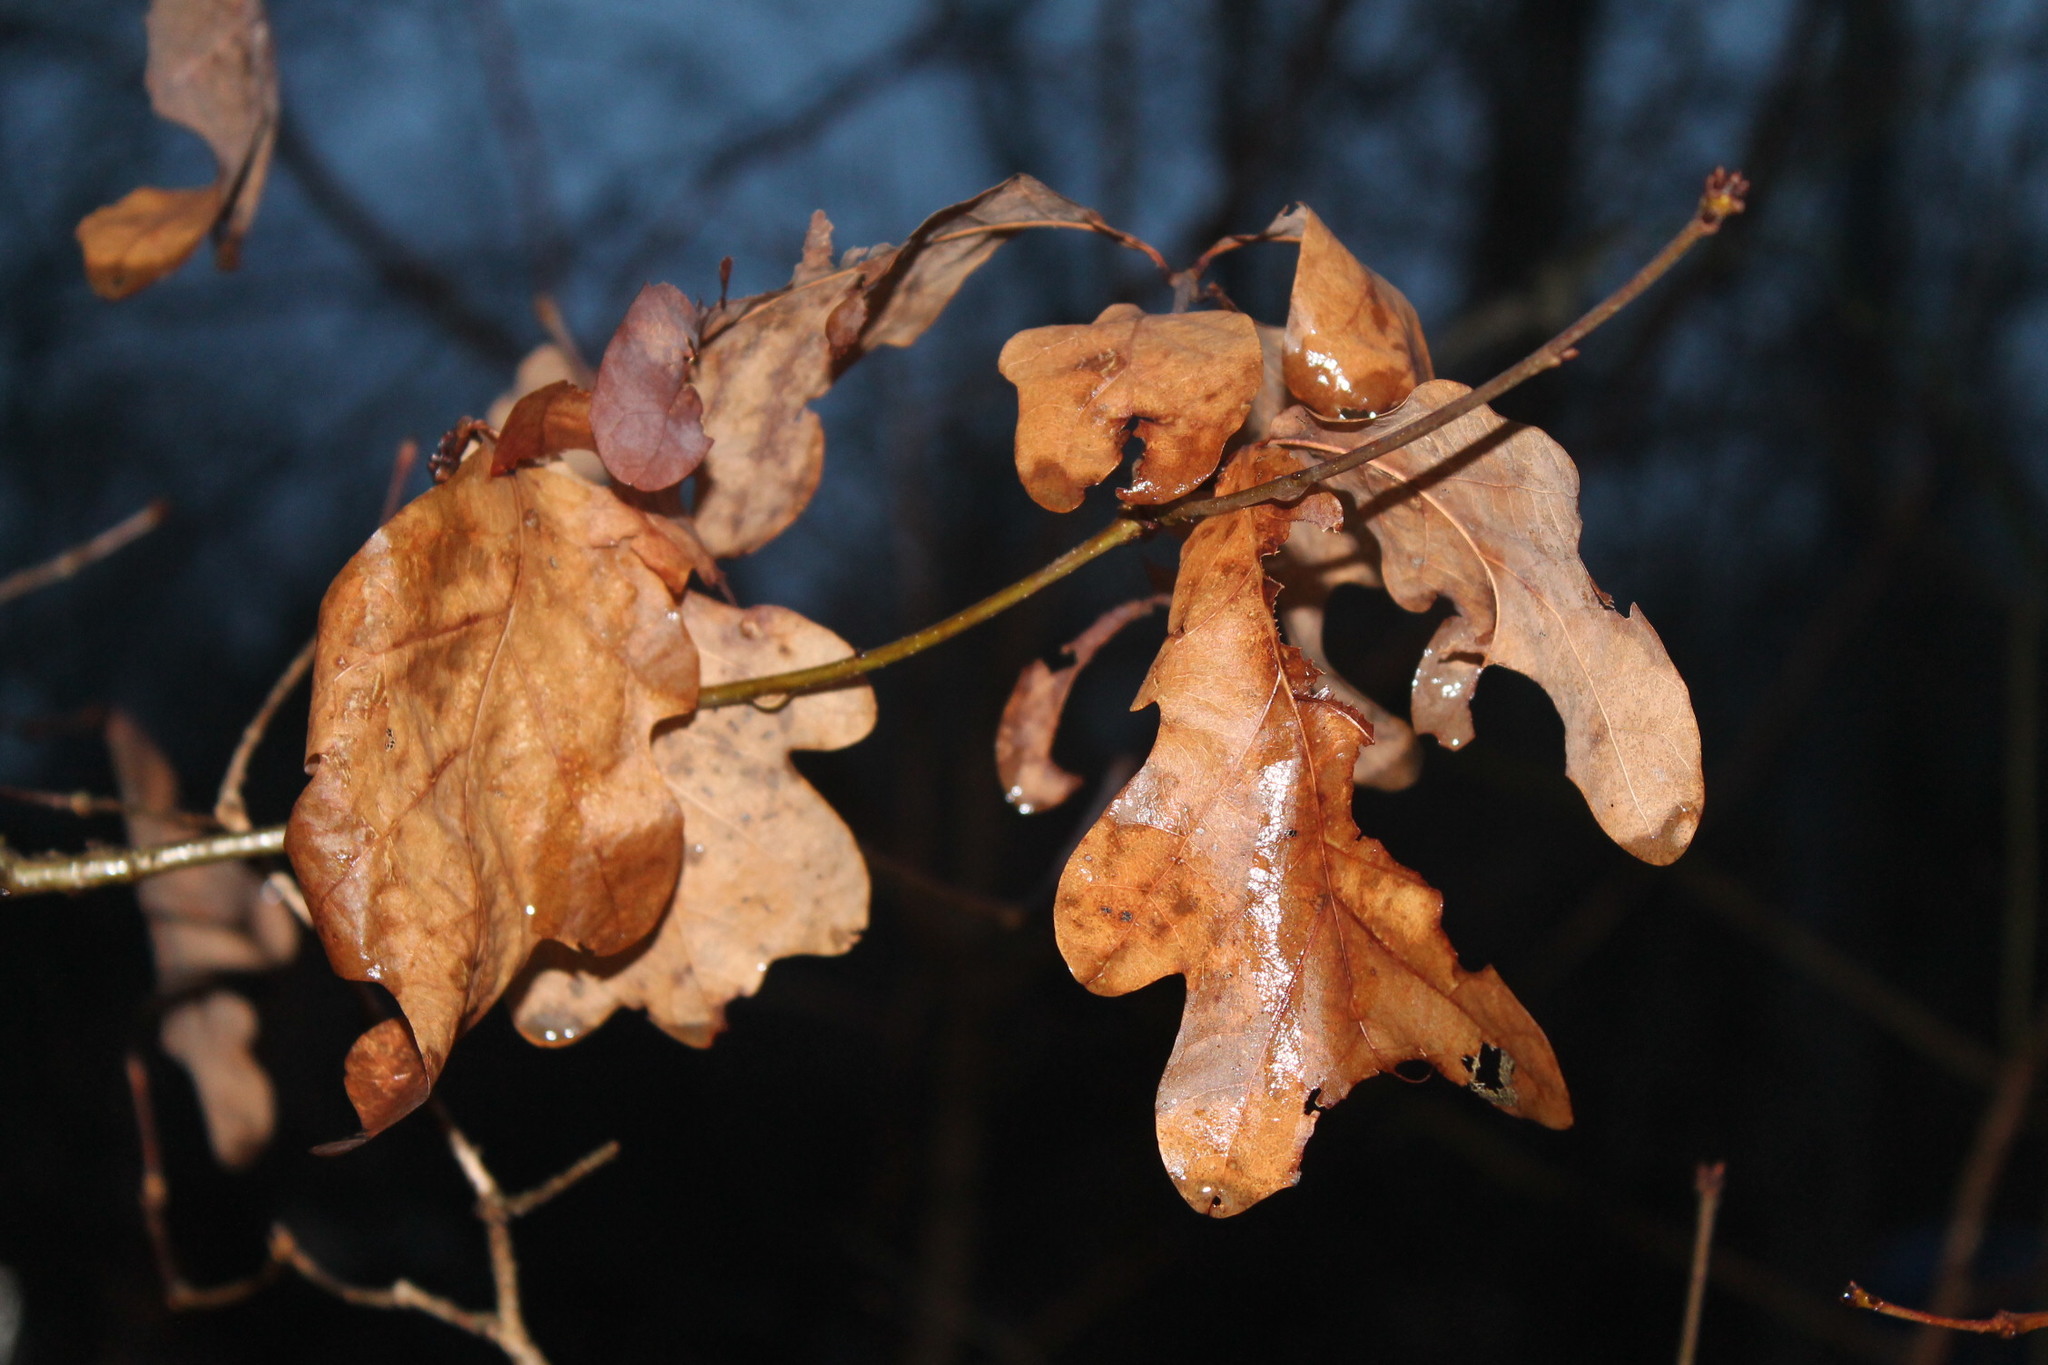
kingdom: Plantae
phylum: Tracheophyta
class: Magnoliopsida
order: Fagales
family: Fagaceae
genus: Quercus
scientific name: Quercus alba
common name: White oak
